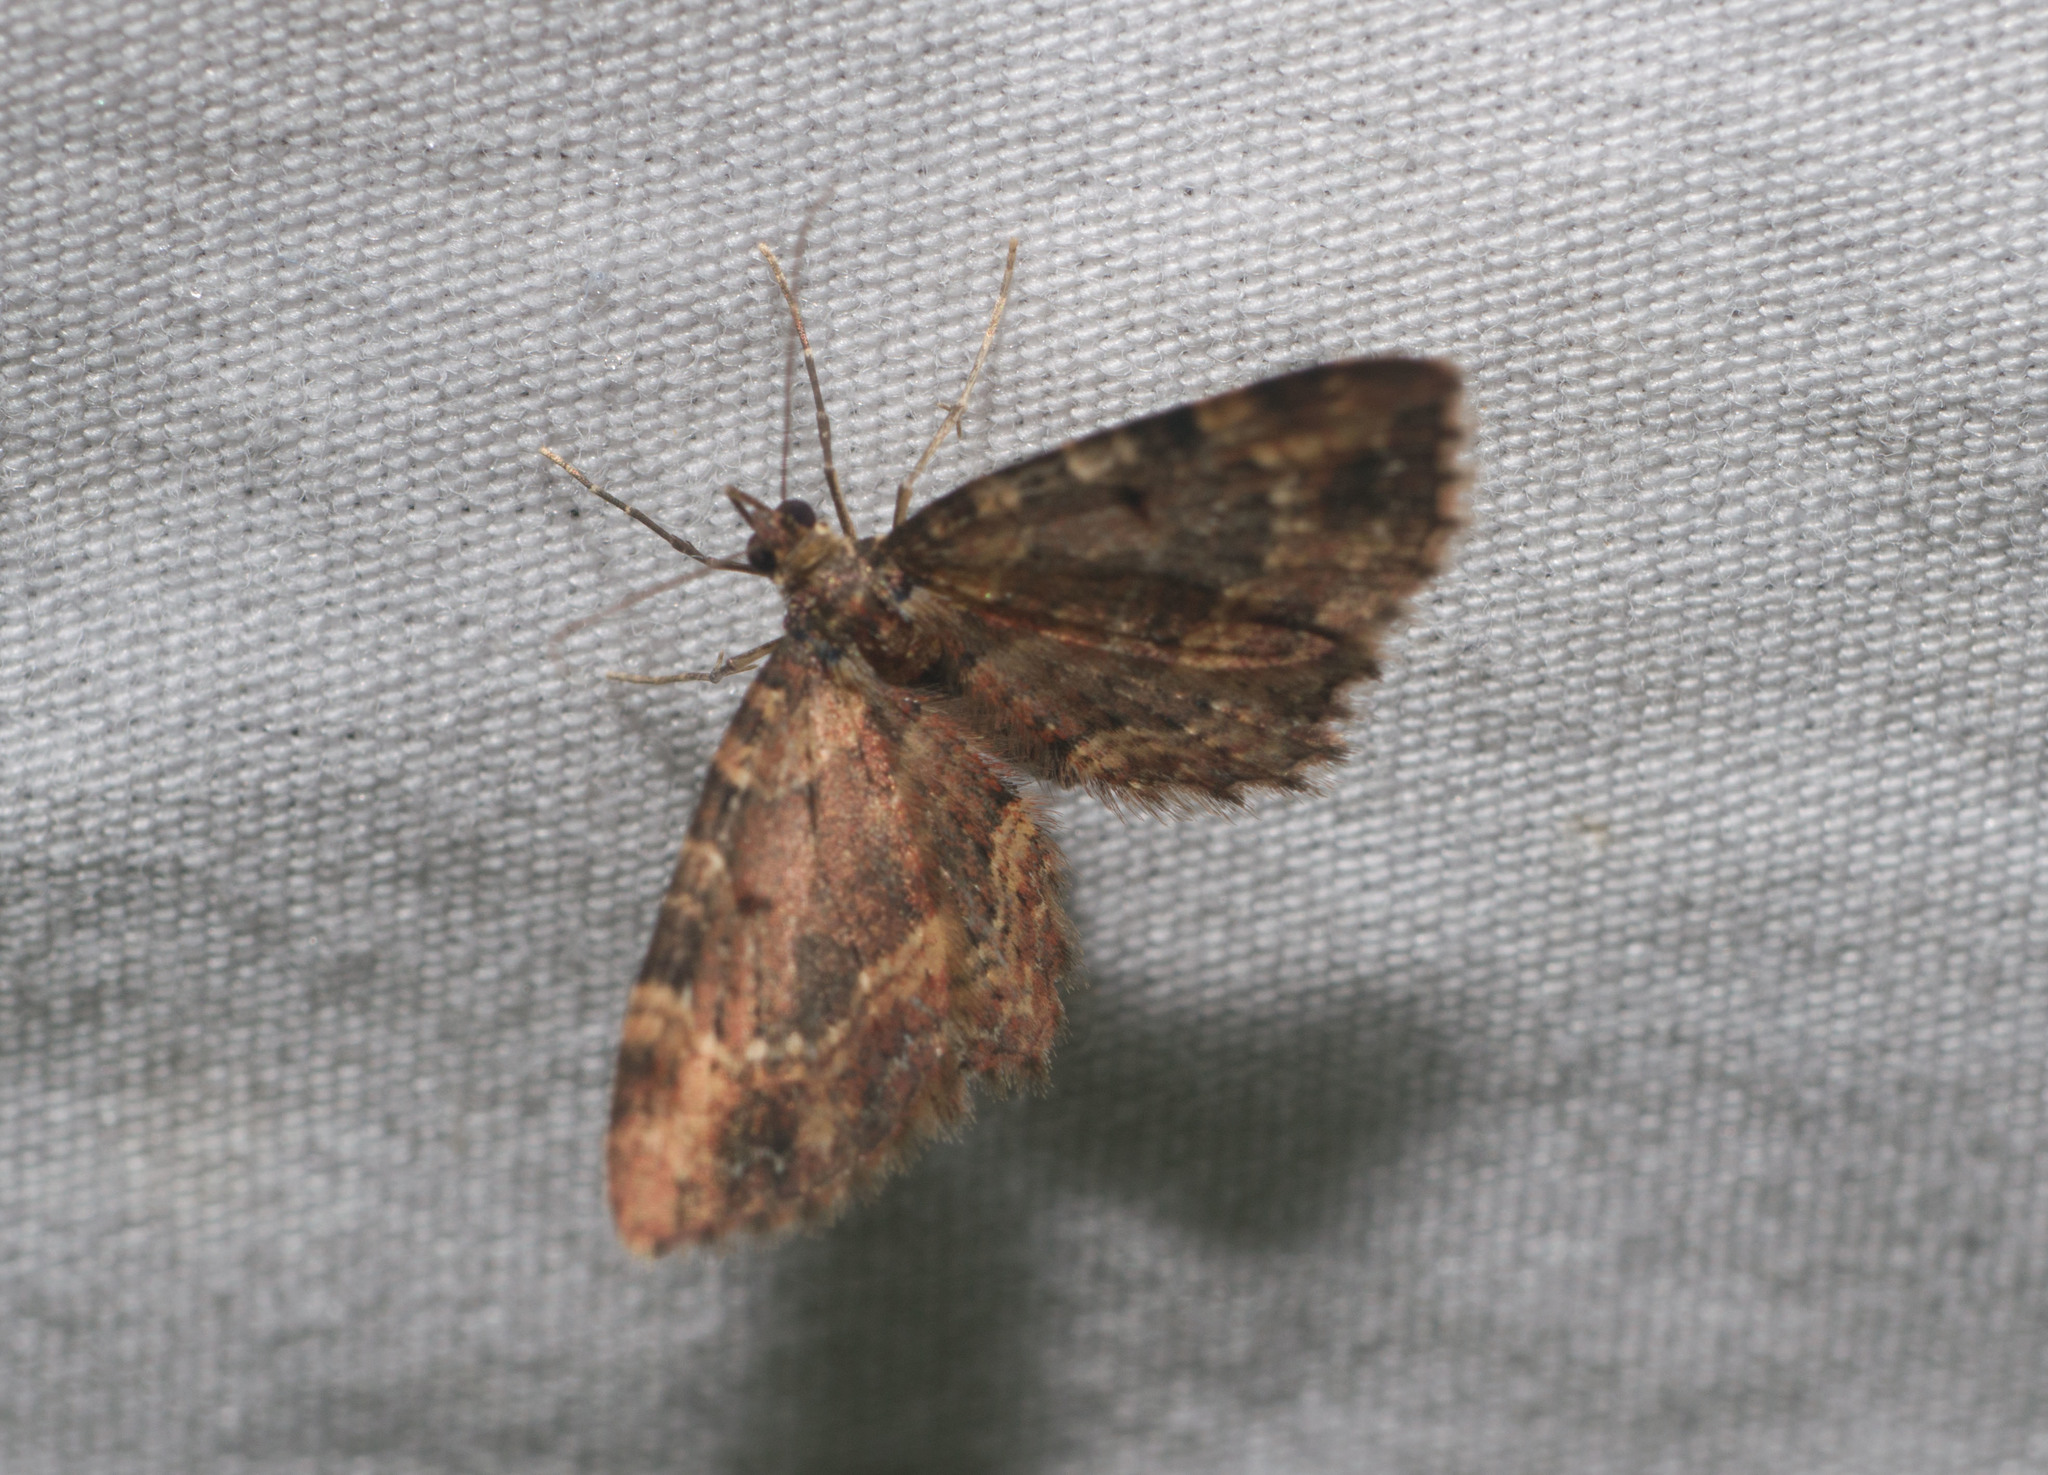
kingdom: Animalia
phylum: Arthropoda
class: Insecta
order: Lepidoptera
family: Geometridae
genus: Eupithecia
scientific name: Eupithecia staurophragma
